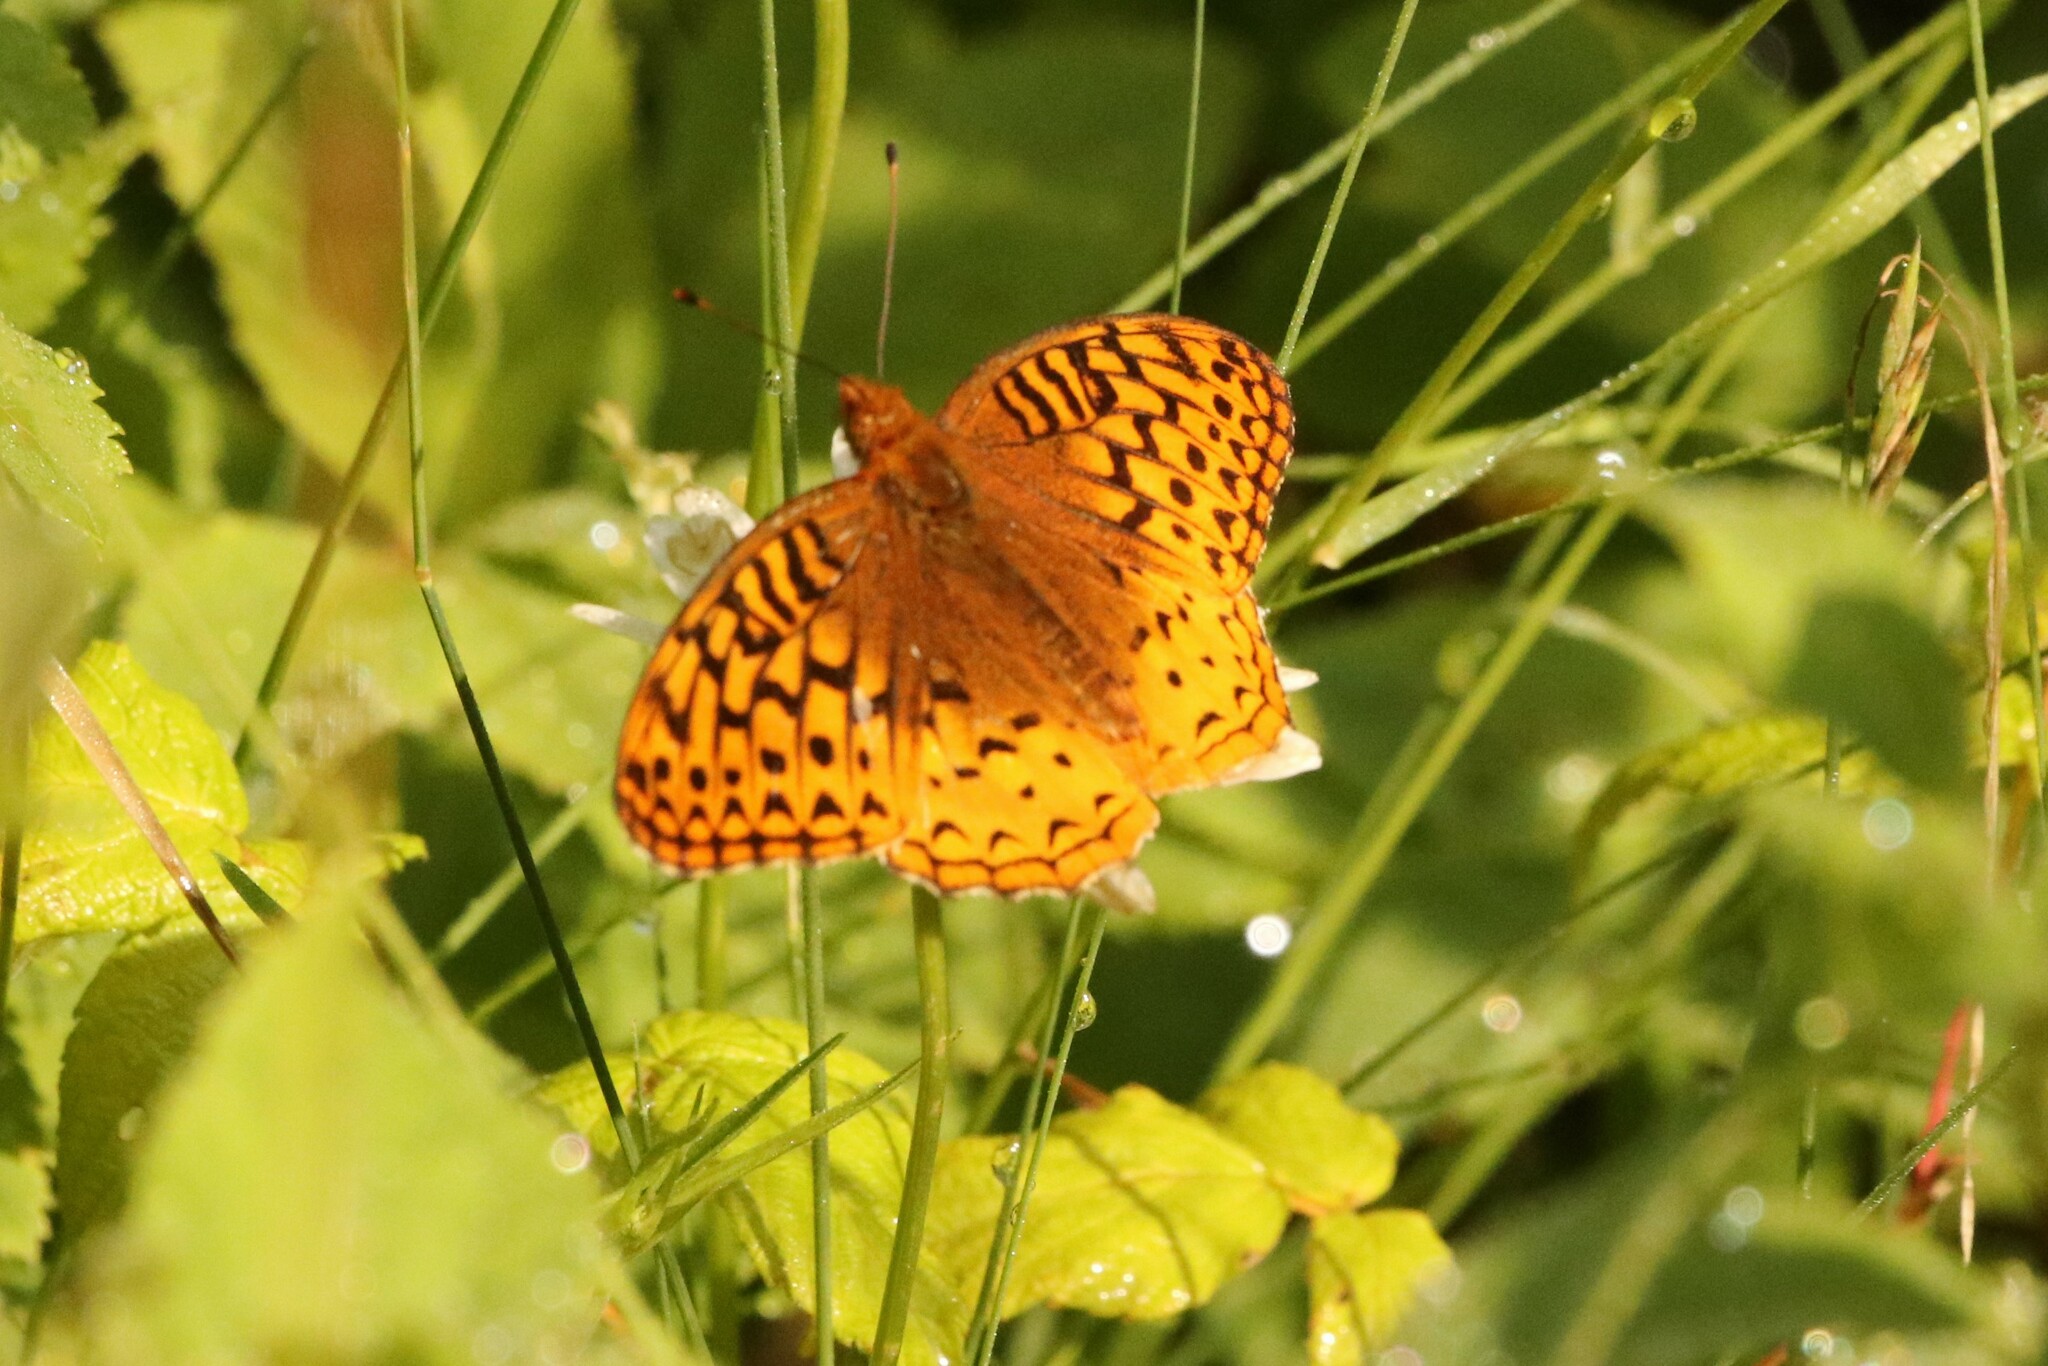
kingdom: Animalia
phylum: Arthropoda
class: Insecta
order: Lepidoptera
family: Nymphalidae
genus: Speyeria
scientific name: Speyeria cybele
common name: Great spangled fritillary
